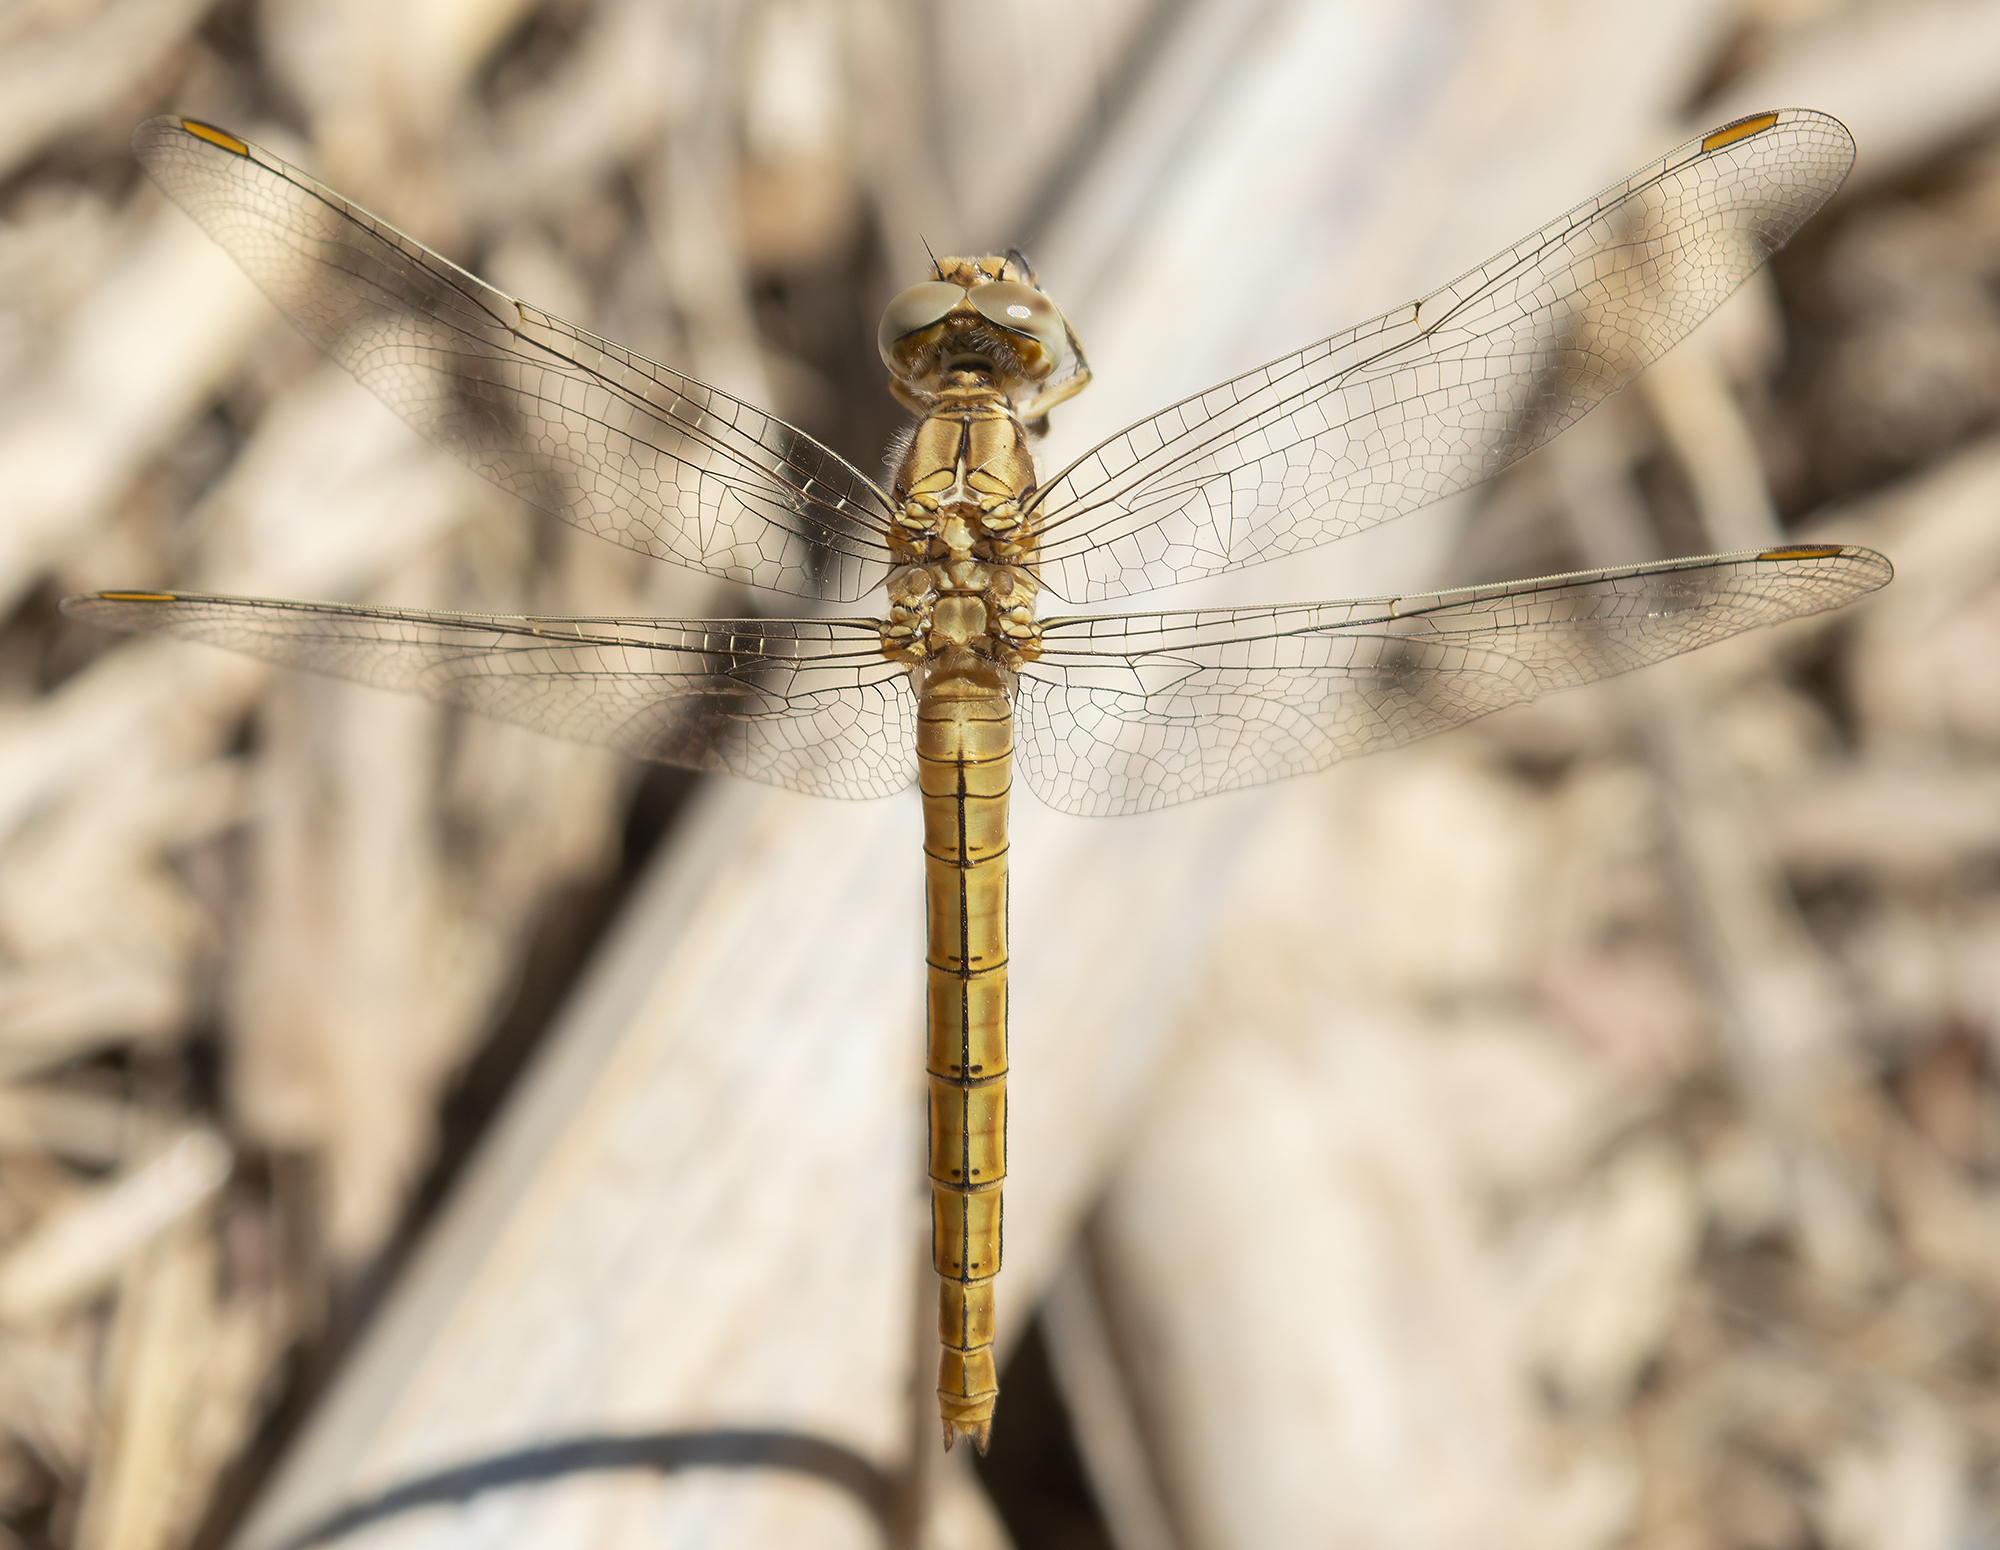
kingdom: Animalia
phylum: Arthropoda
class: Insecta
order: Odonata
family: Libellulidae
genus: Orthetrum
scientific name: Orthetrum brunneum
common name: Southern skimmer
